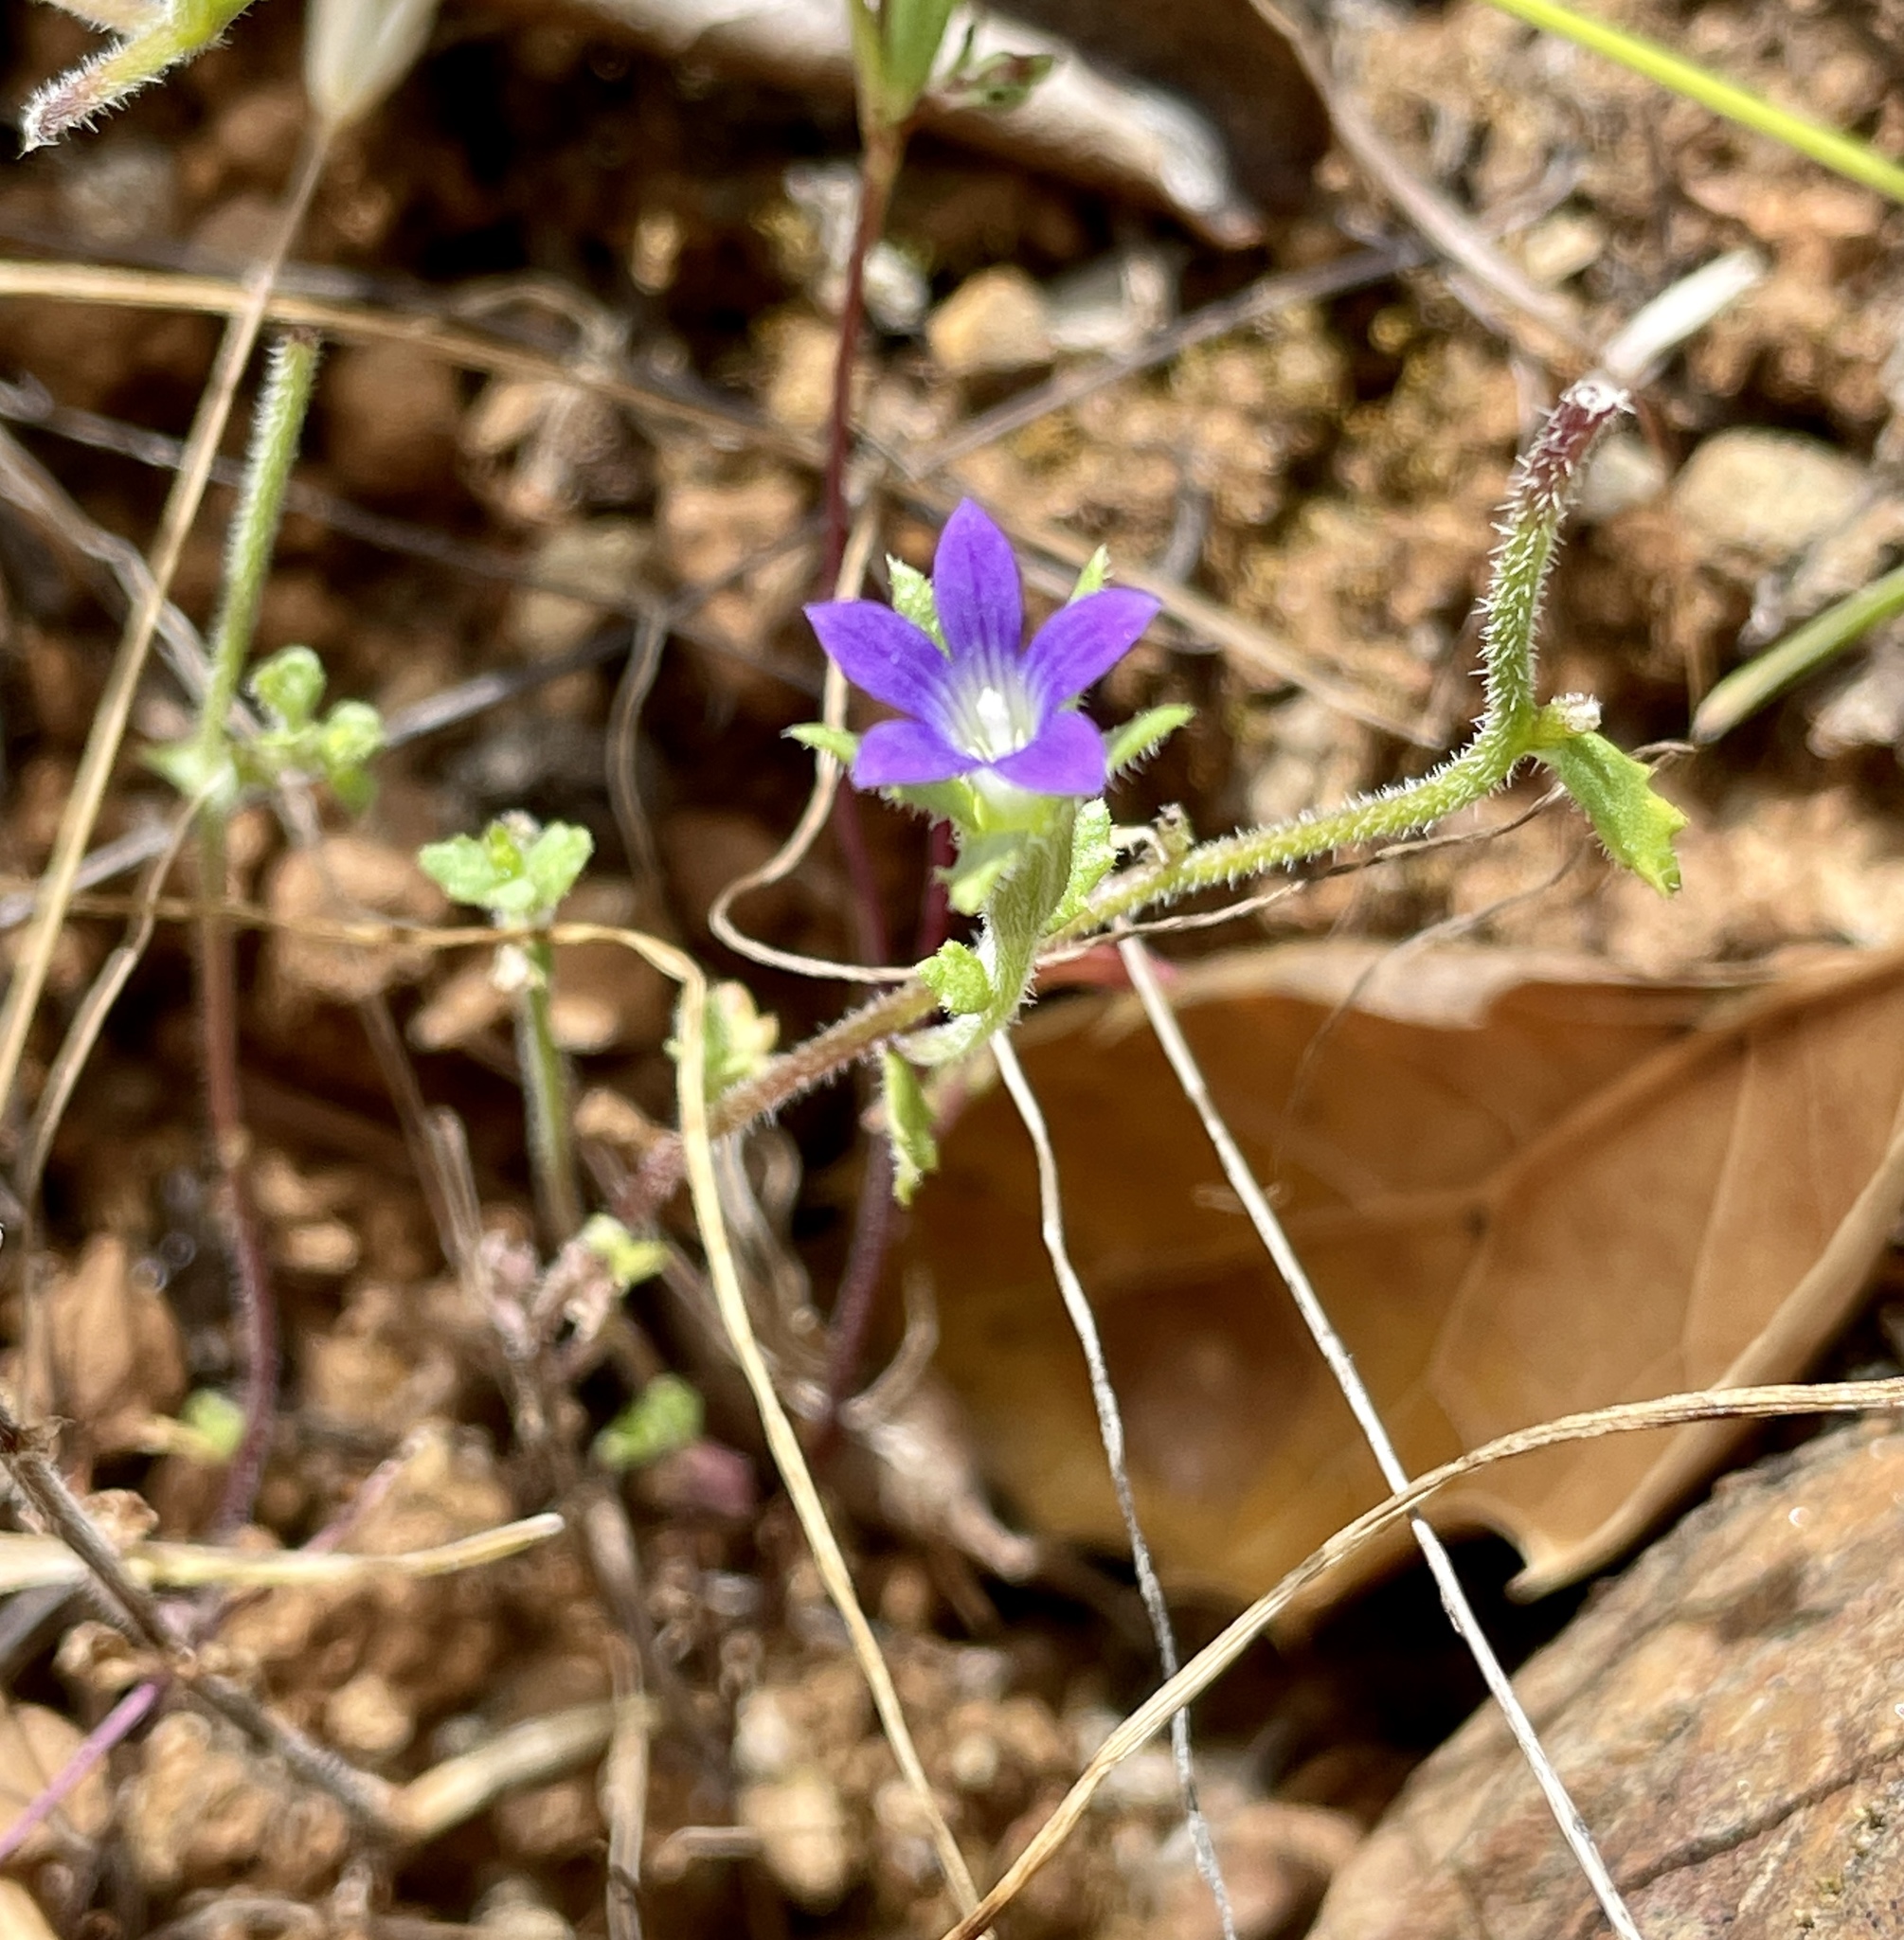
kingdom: Plantae
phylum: Tracheophyta
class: Magnoliopsida
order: Asterales
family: Campanulaceae
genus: Githopsis
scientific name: Githopsis specularioides
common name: Common bluecup
